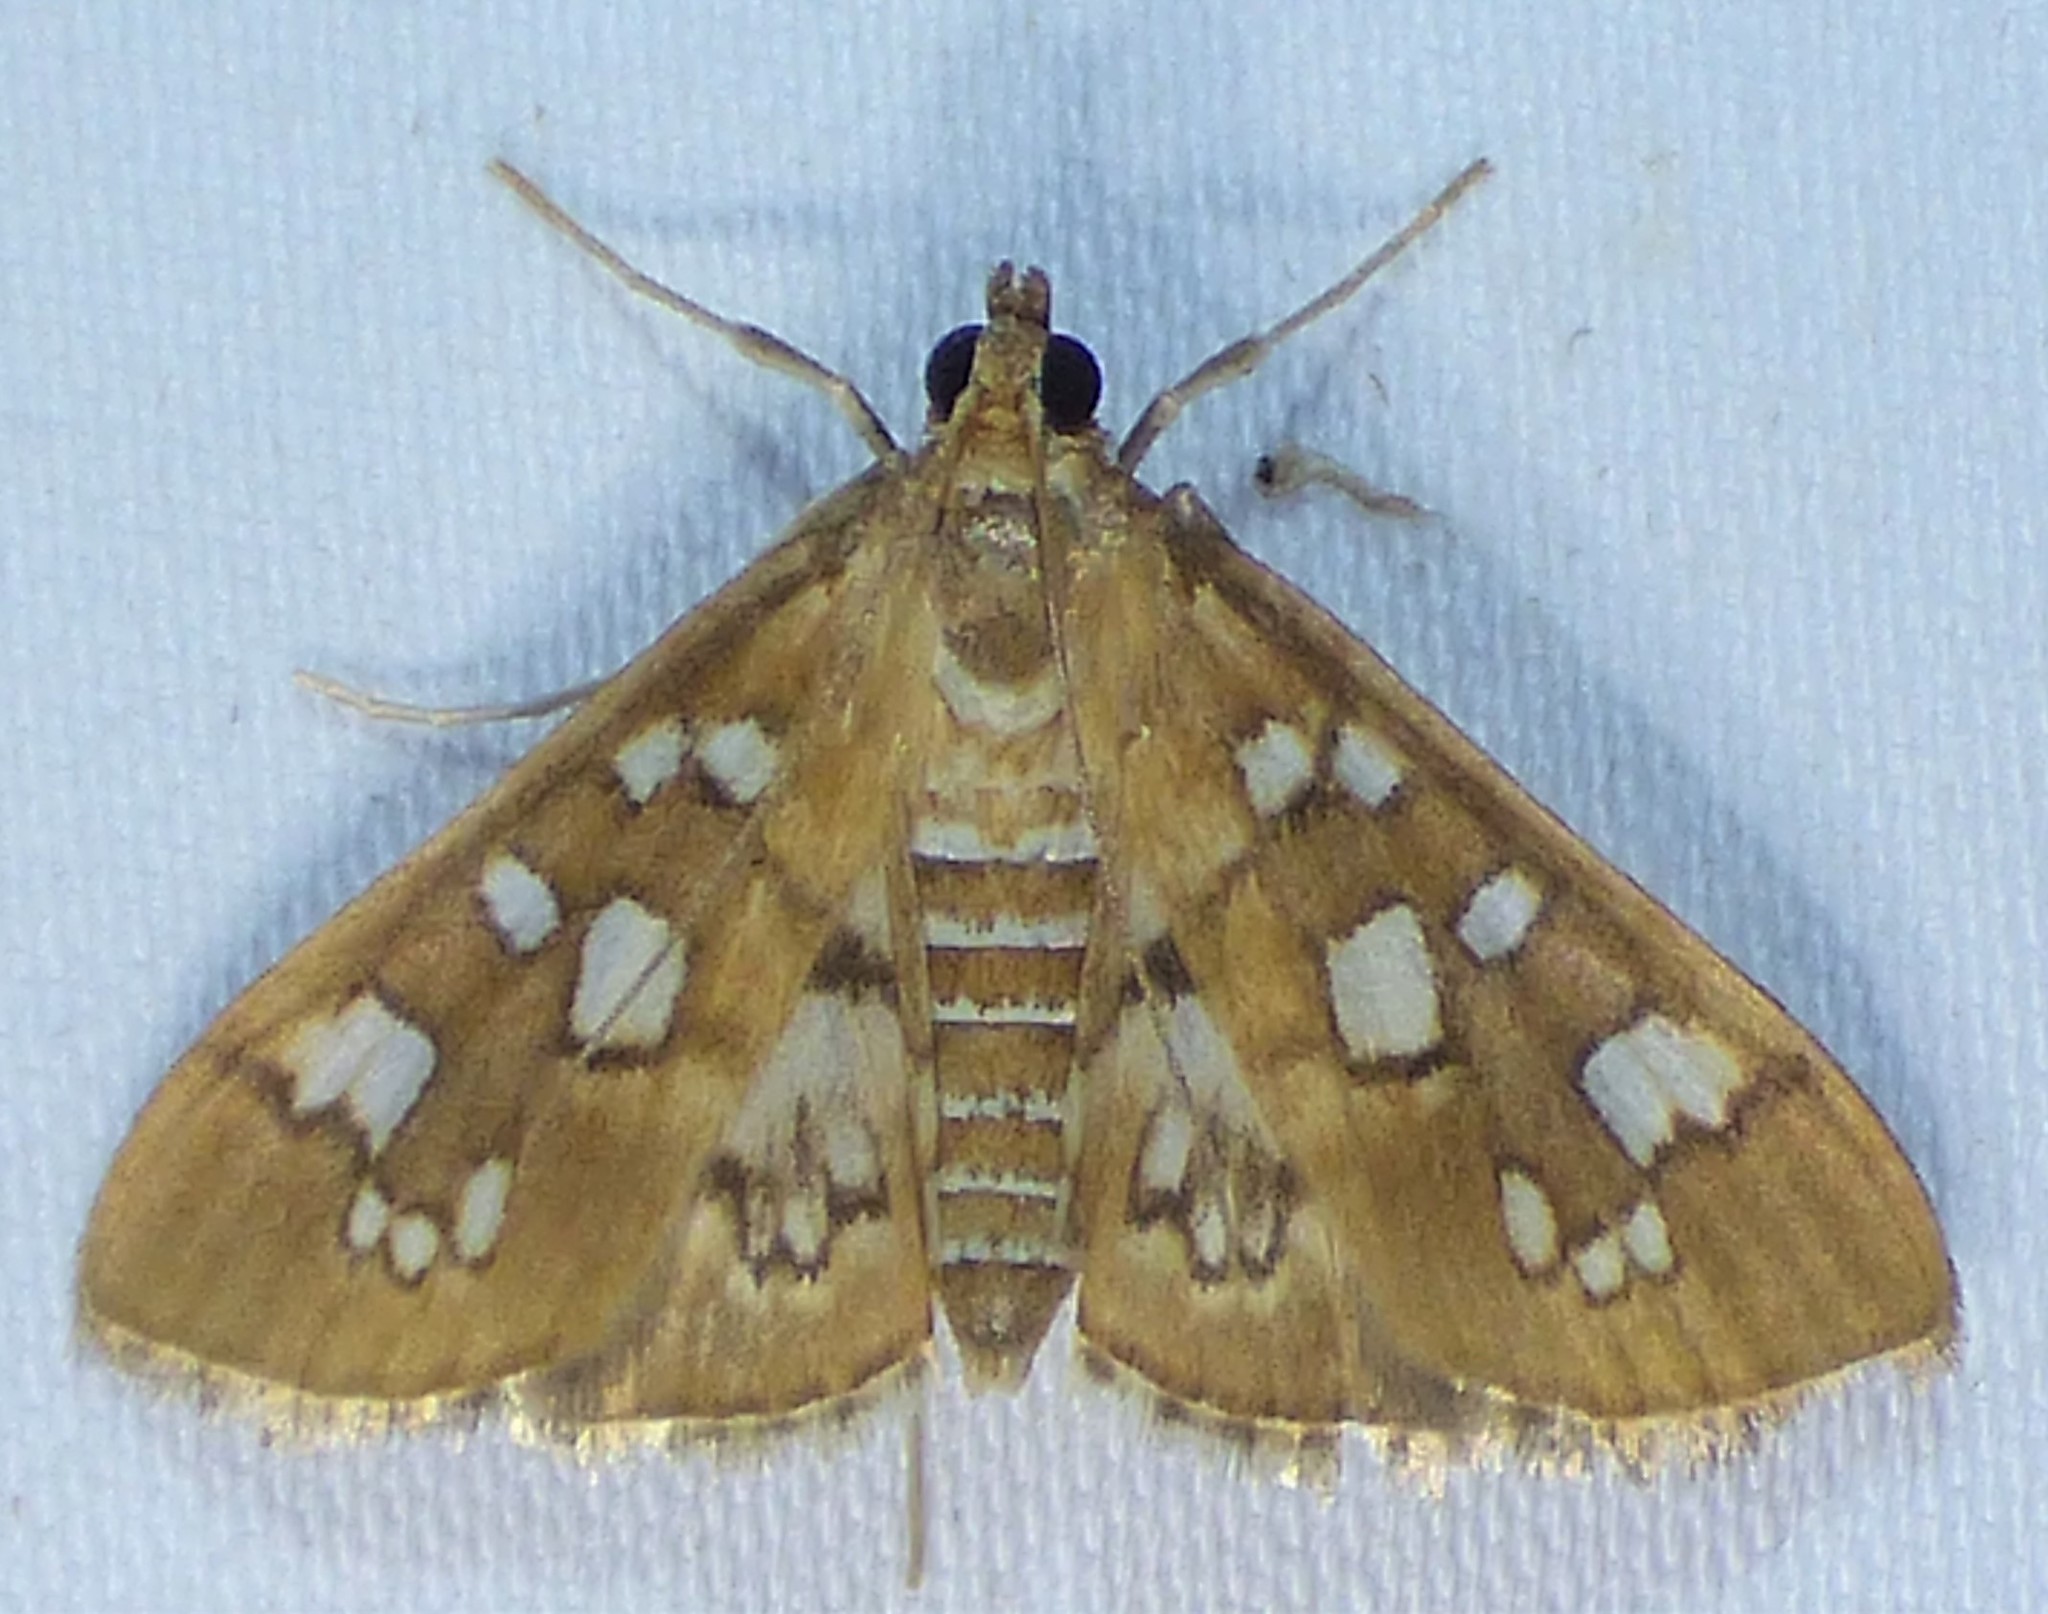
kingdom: Animalia
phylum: Arthropoda
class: Insecta
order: Lepidoptera
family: Crambidae
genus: Samea
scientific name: Samea baccatalis
